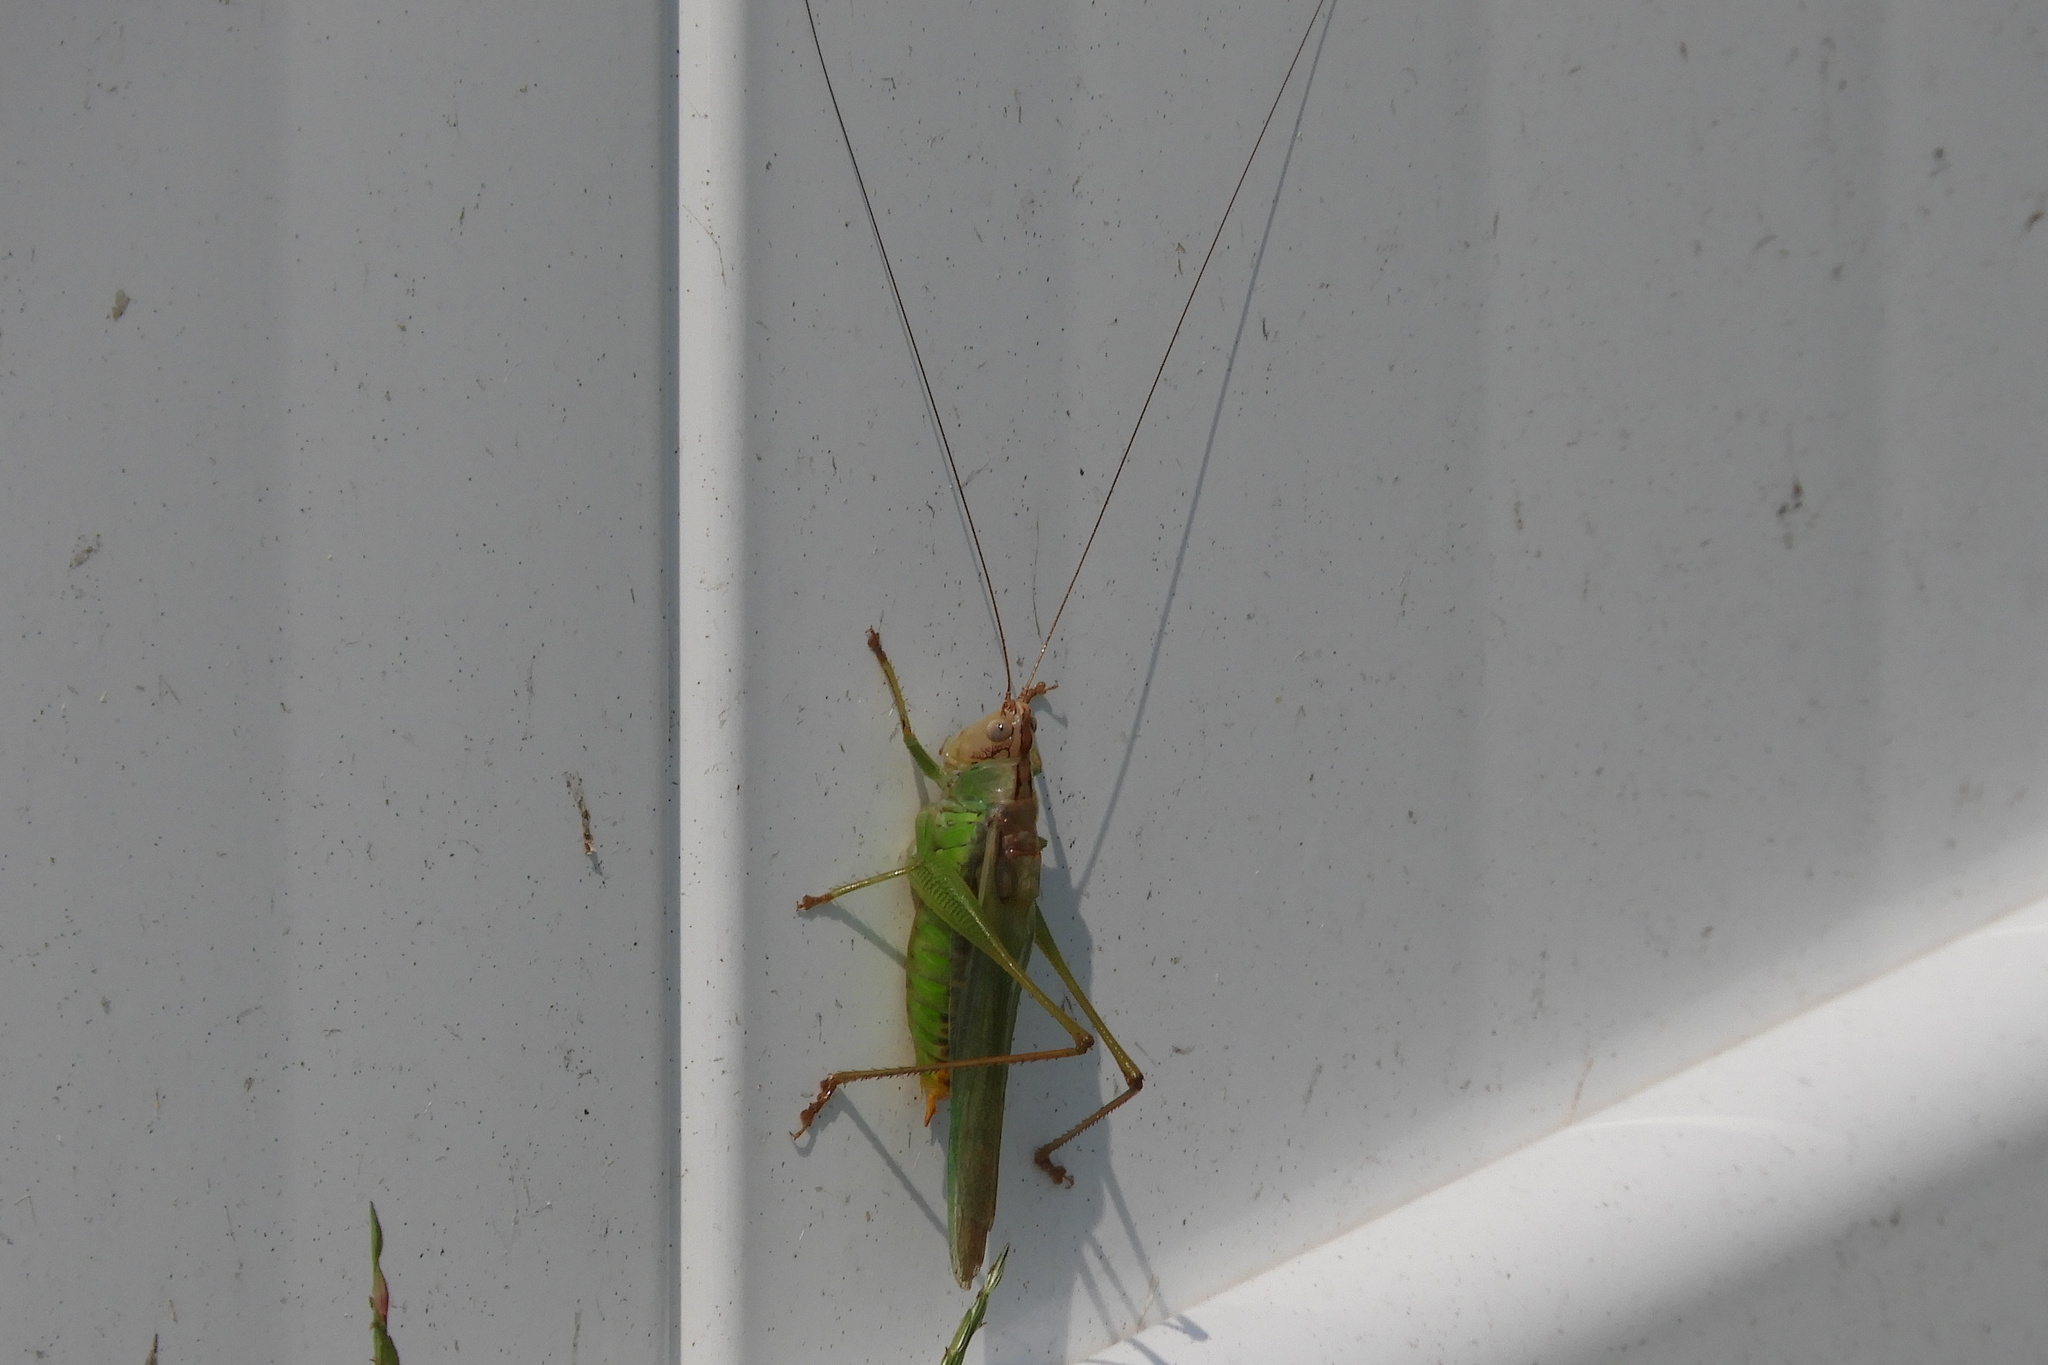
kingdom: Animalia
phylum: Arthropoda
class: Insecta
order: Orthoptera
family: Tettigoniidae
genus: Orchelimum
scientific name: Orchelimum agilis
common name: Agile meadow grasshopper
